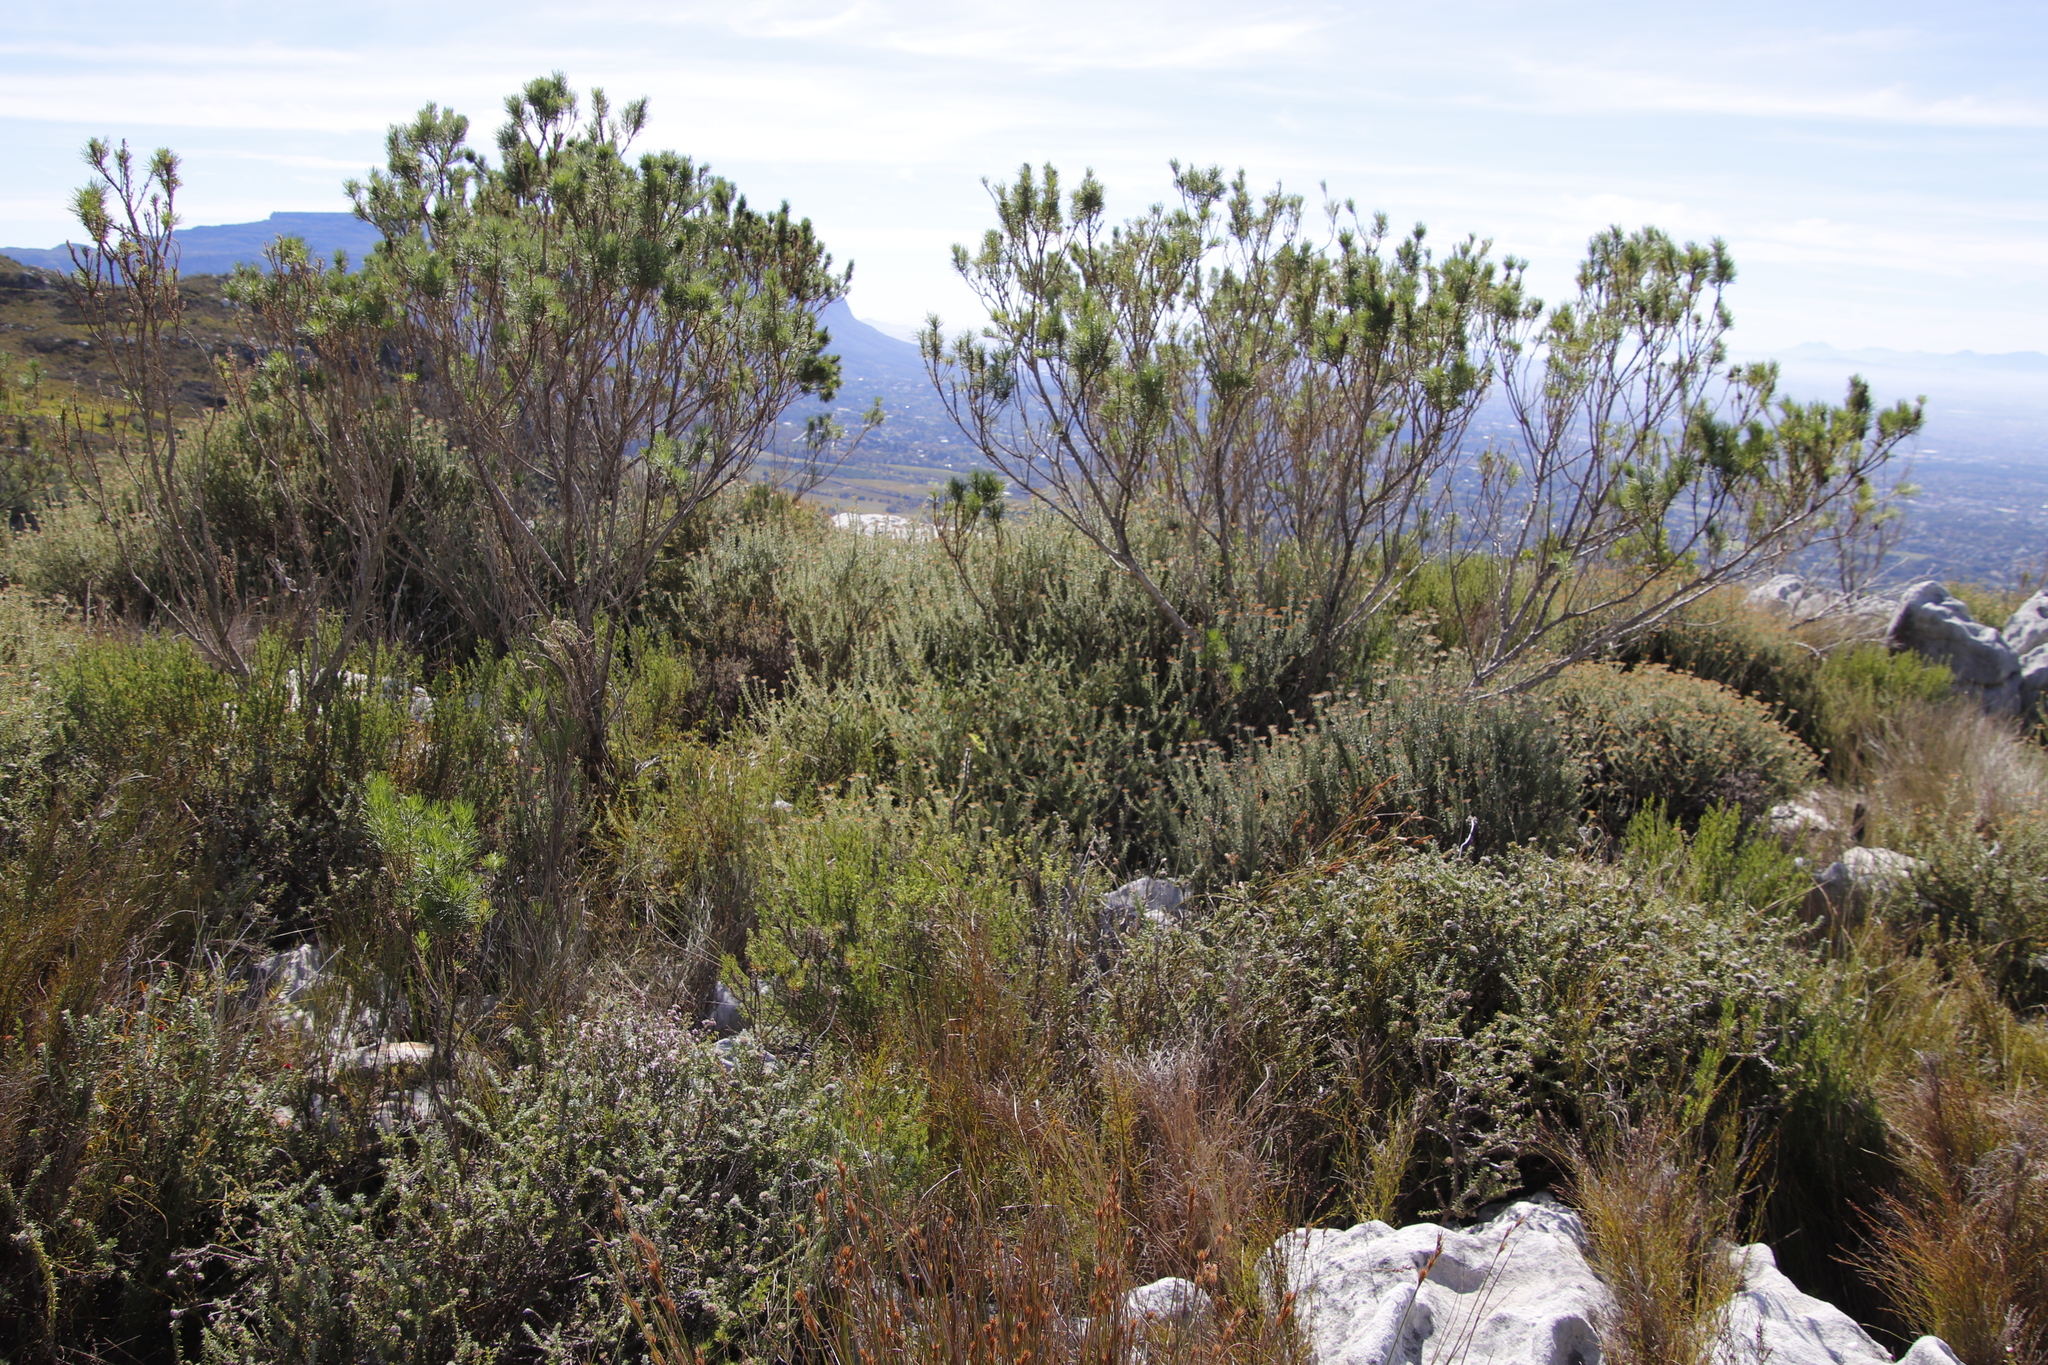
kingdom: Plantae
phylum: Tracheophyta
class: Magnoliopsida
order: Fabales
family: Fabaceae
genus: Psoralea
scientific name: Psoralea pinnata
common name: African scurfpea
